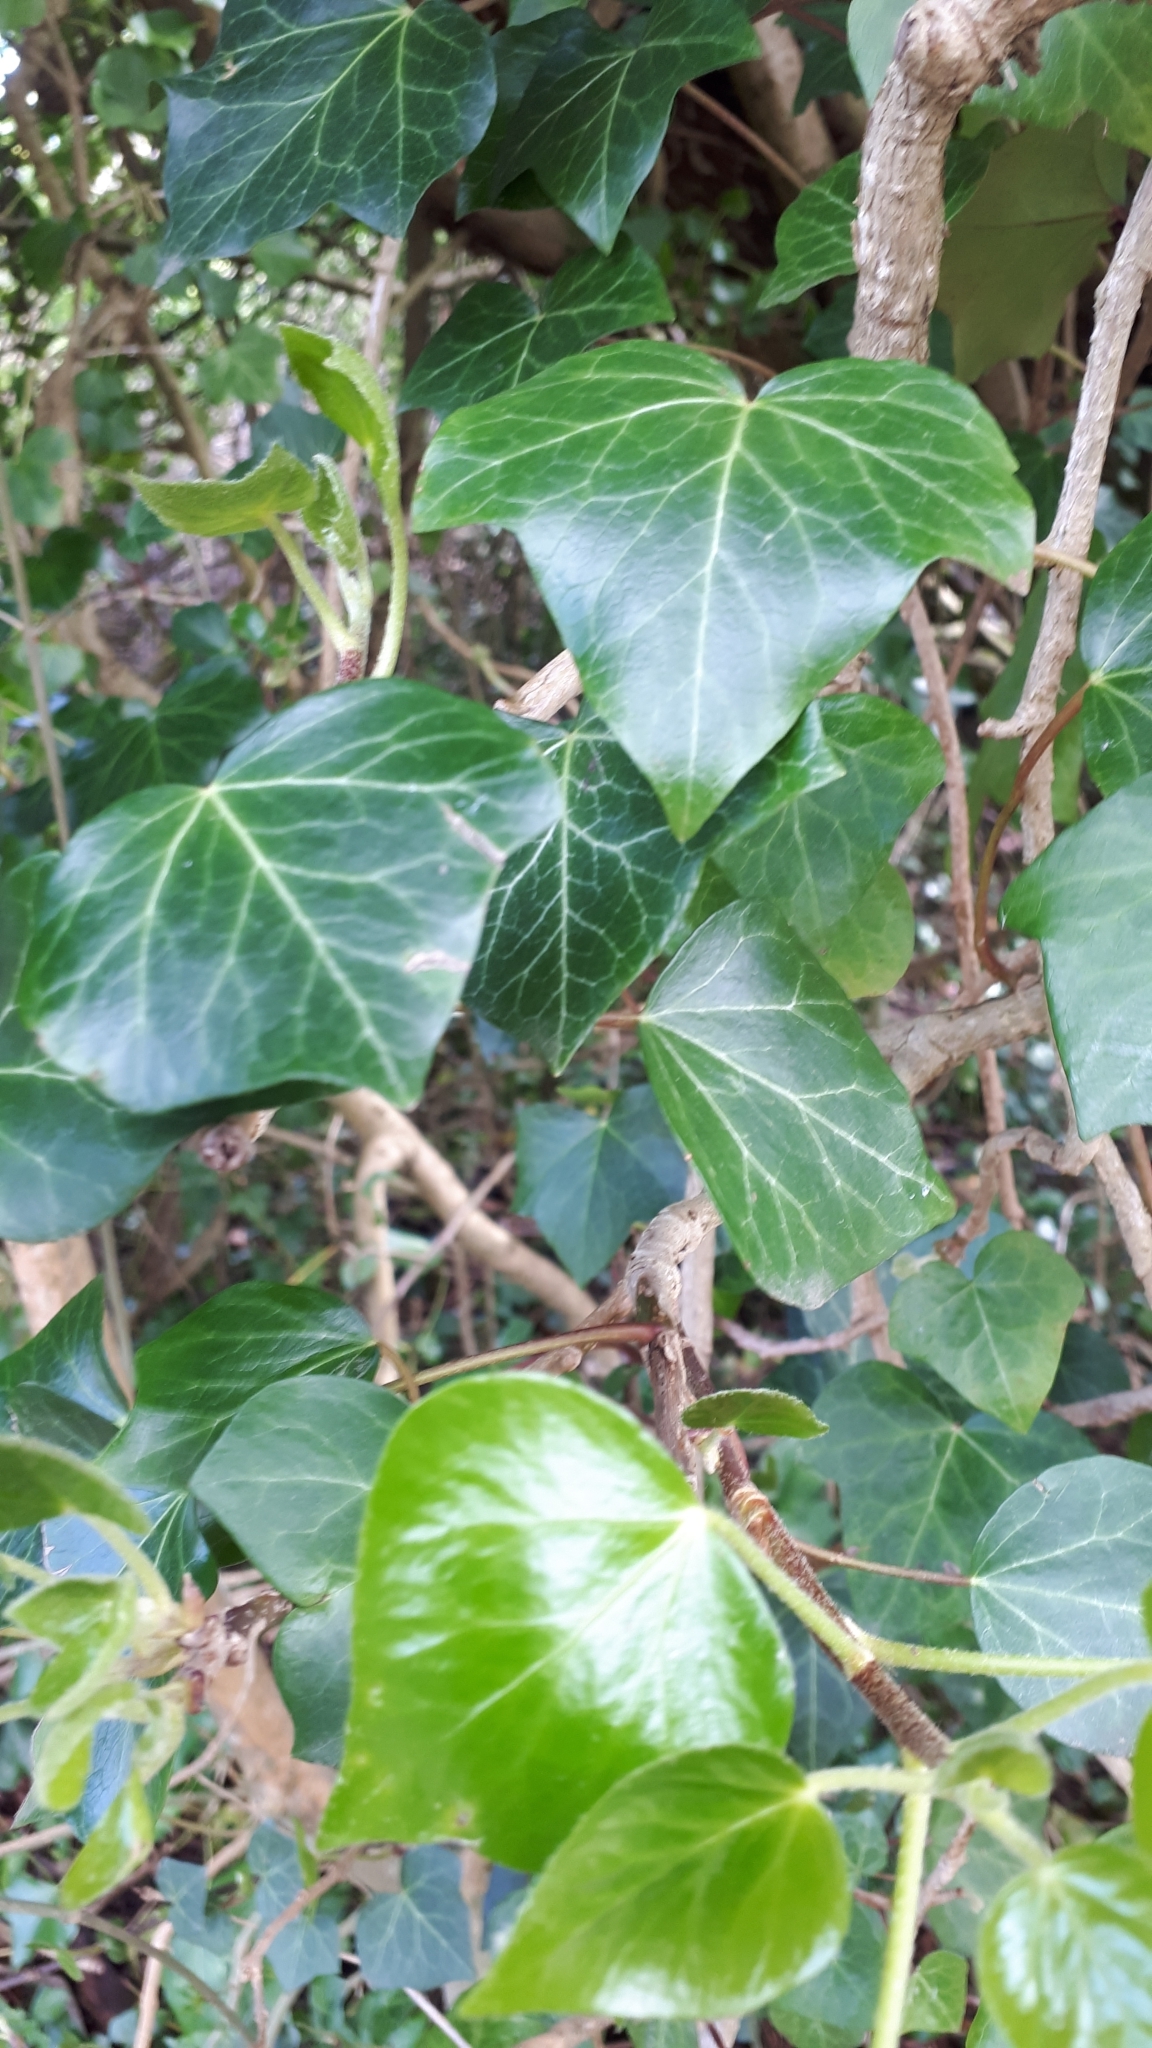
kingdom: Plantae
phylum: Tracheophyta
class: Magnoliopsida
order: Apiales
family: Araliaceae
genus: Hedera
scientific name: Hedera helix
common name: Ivy
